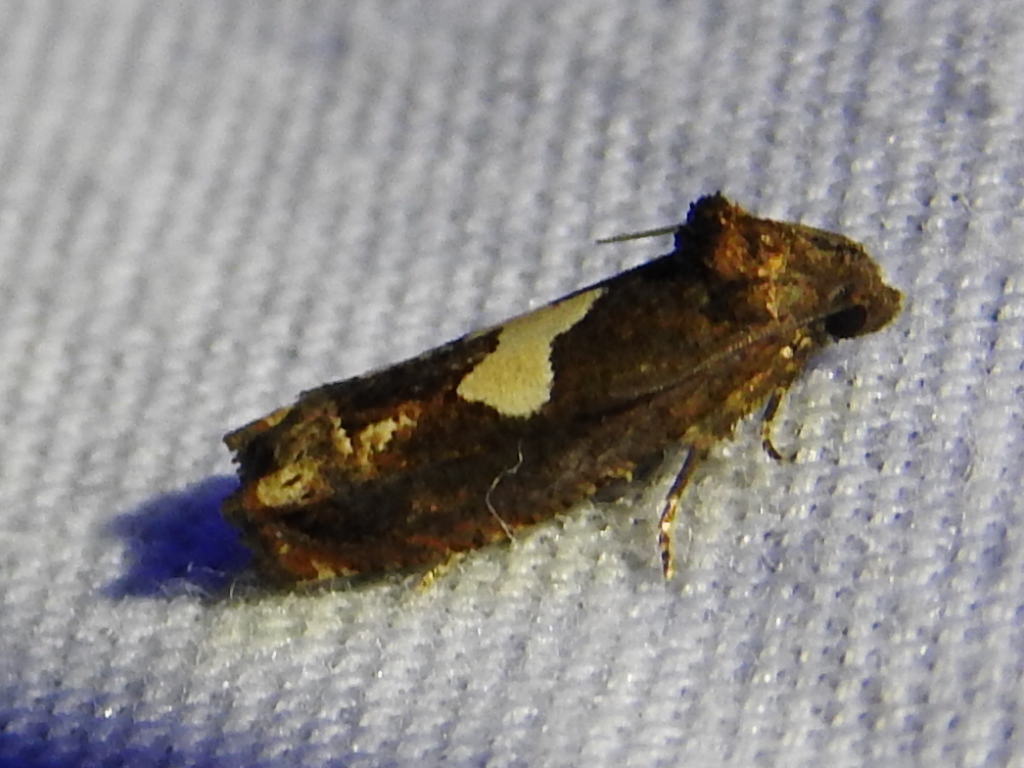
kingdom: Animalia
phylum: Arthropoda
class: Insecta
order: Lepidoptera
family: Tortricidae
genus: Epiblema
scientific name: Epiblema otiosana
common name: Bidens borer moth
